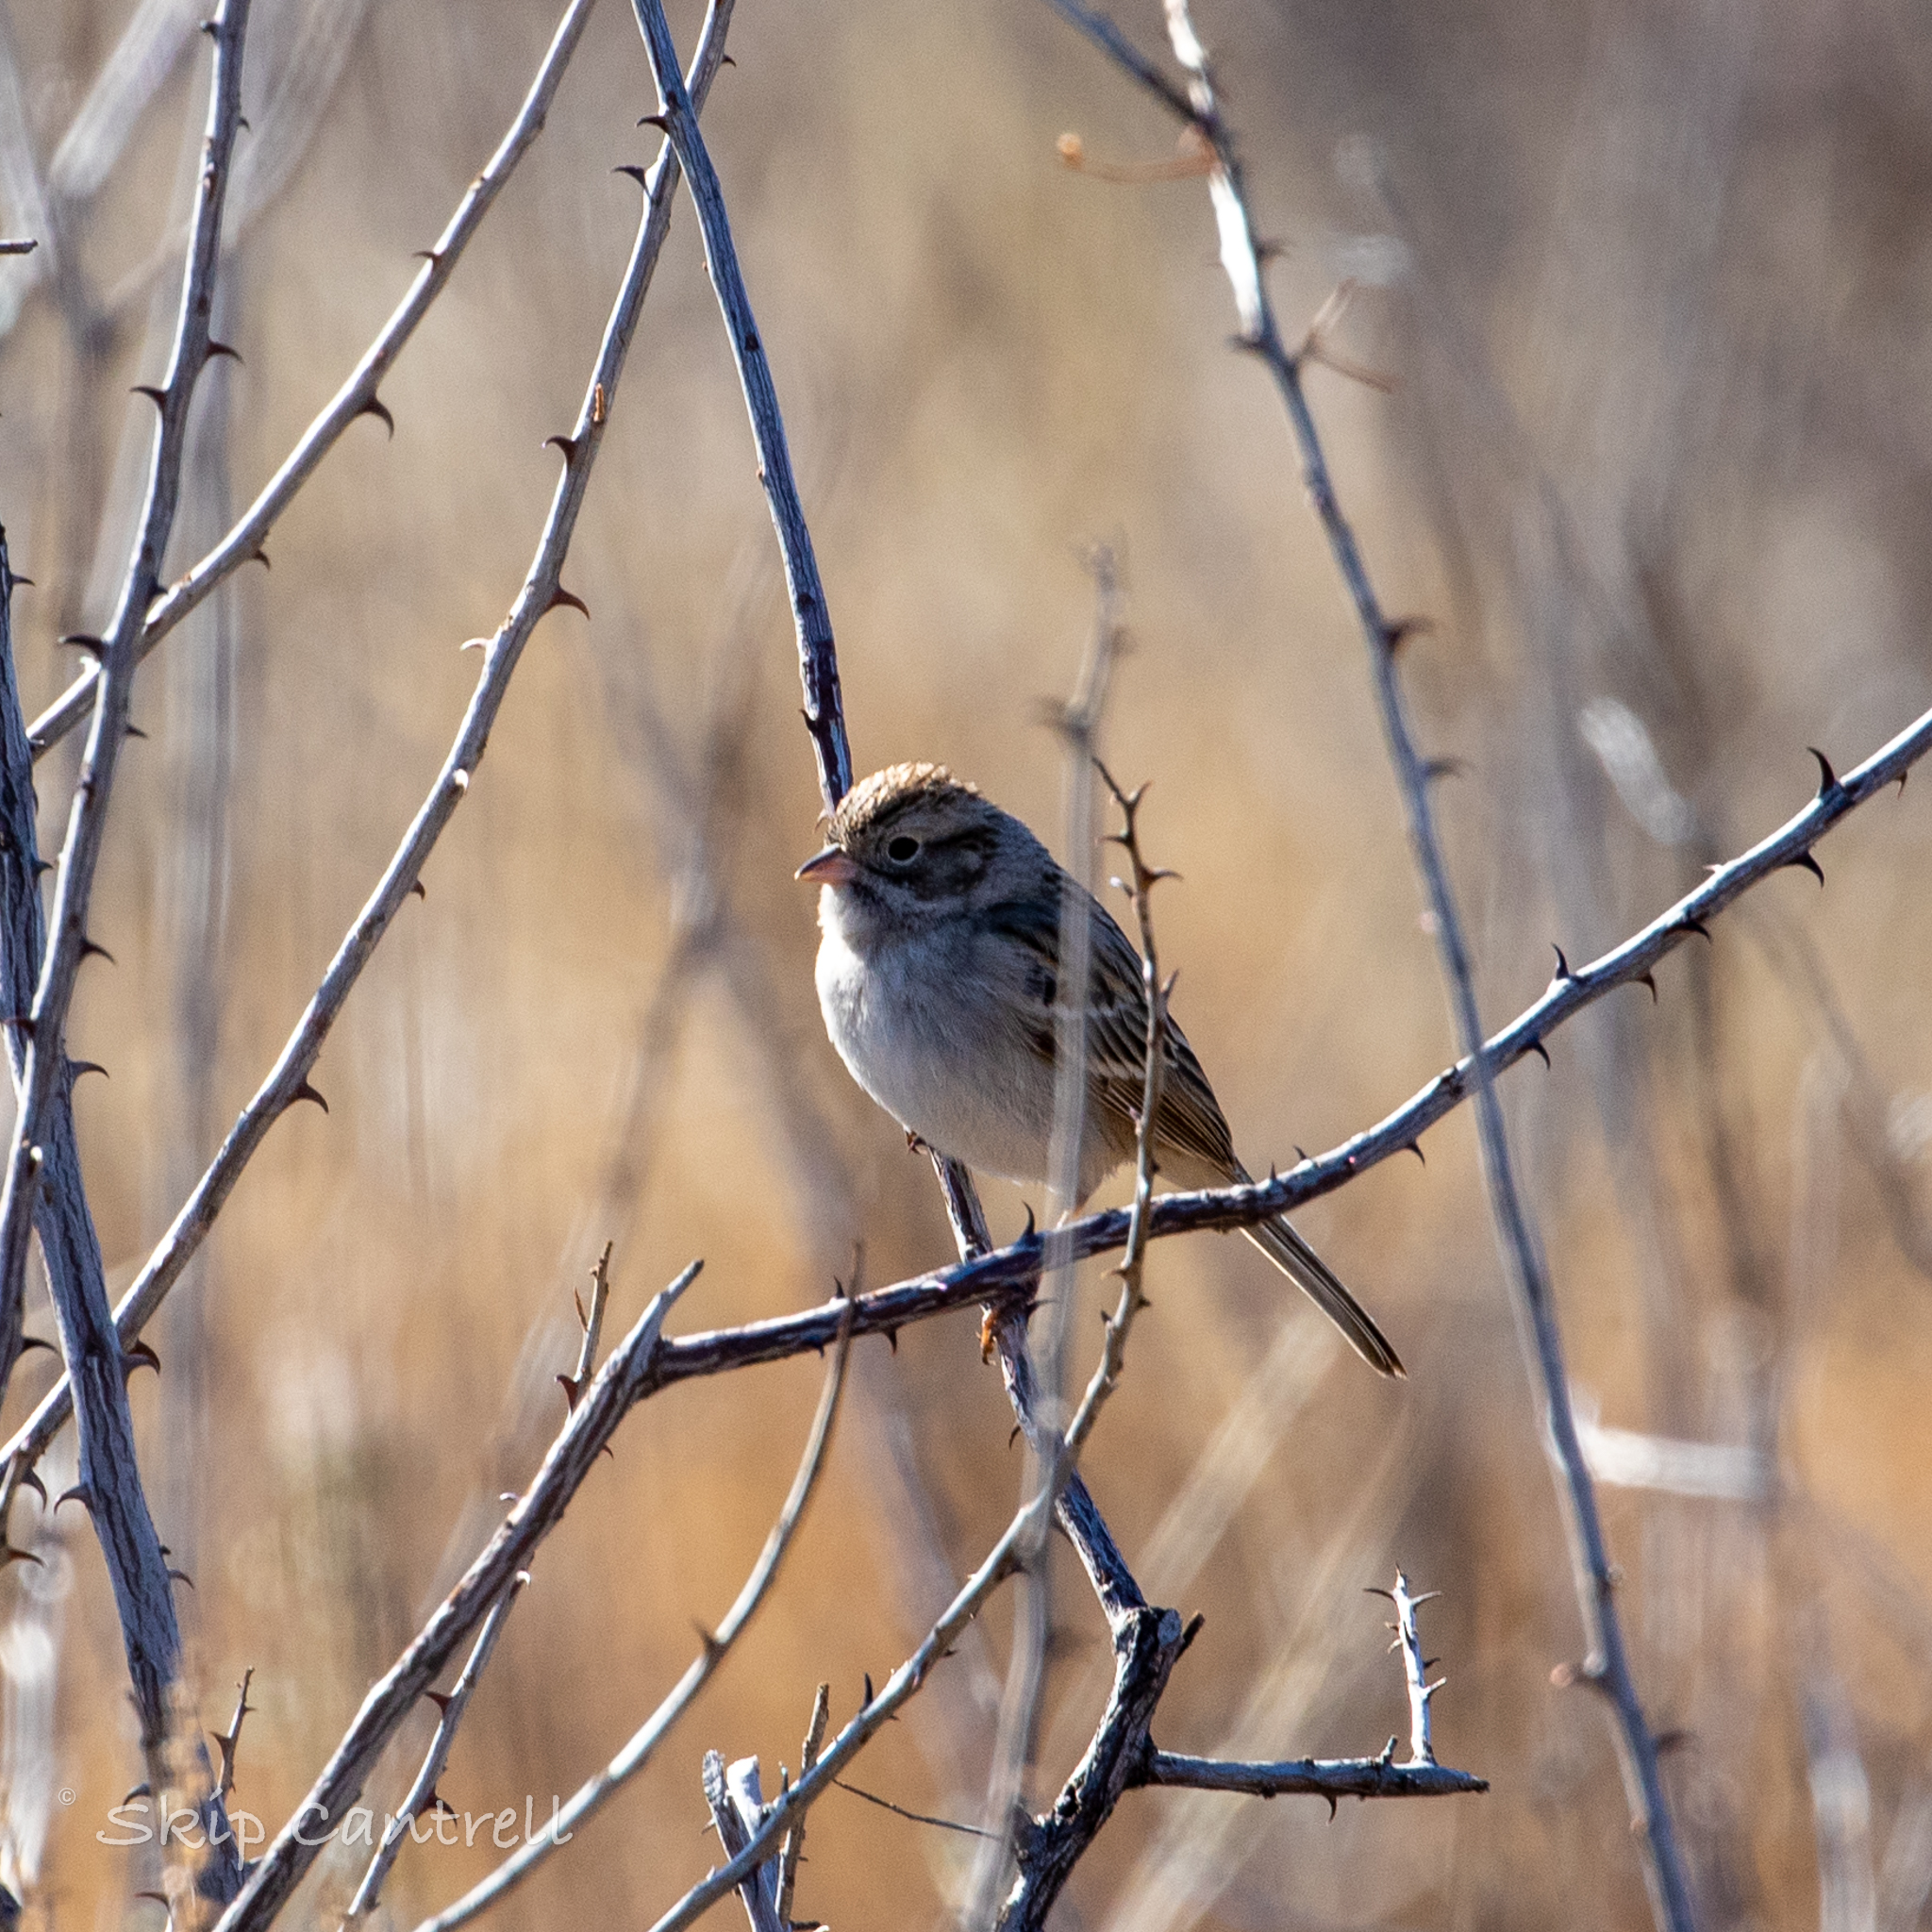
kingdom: Animalia
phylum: Chordata
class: Aves
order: Passeriformes
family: Passerellidae
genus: Spizella
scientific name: Spizella breweri
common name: Brewer's sparrow
